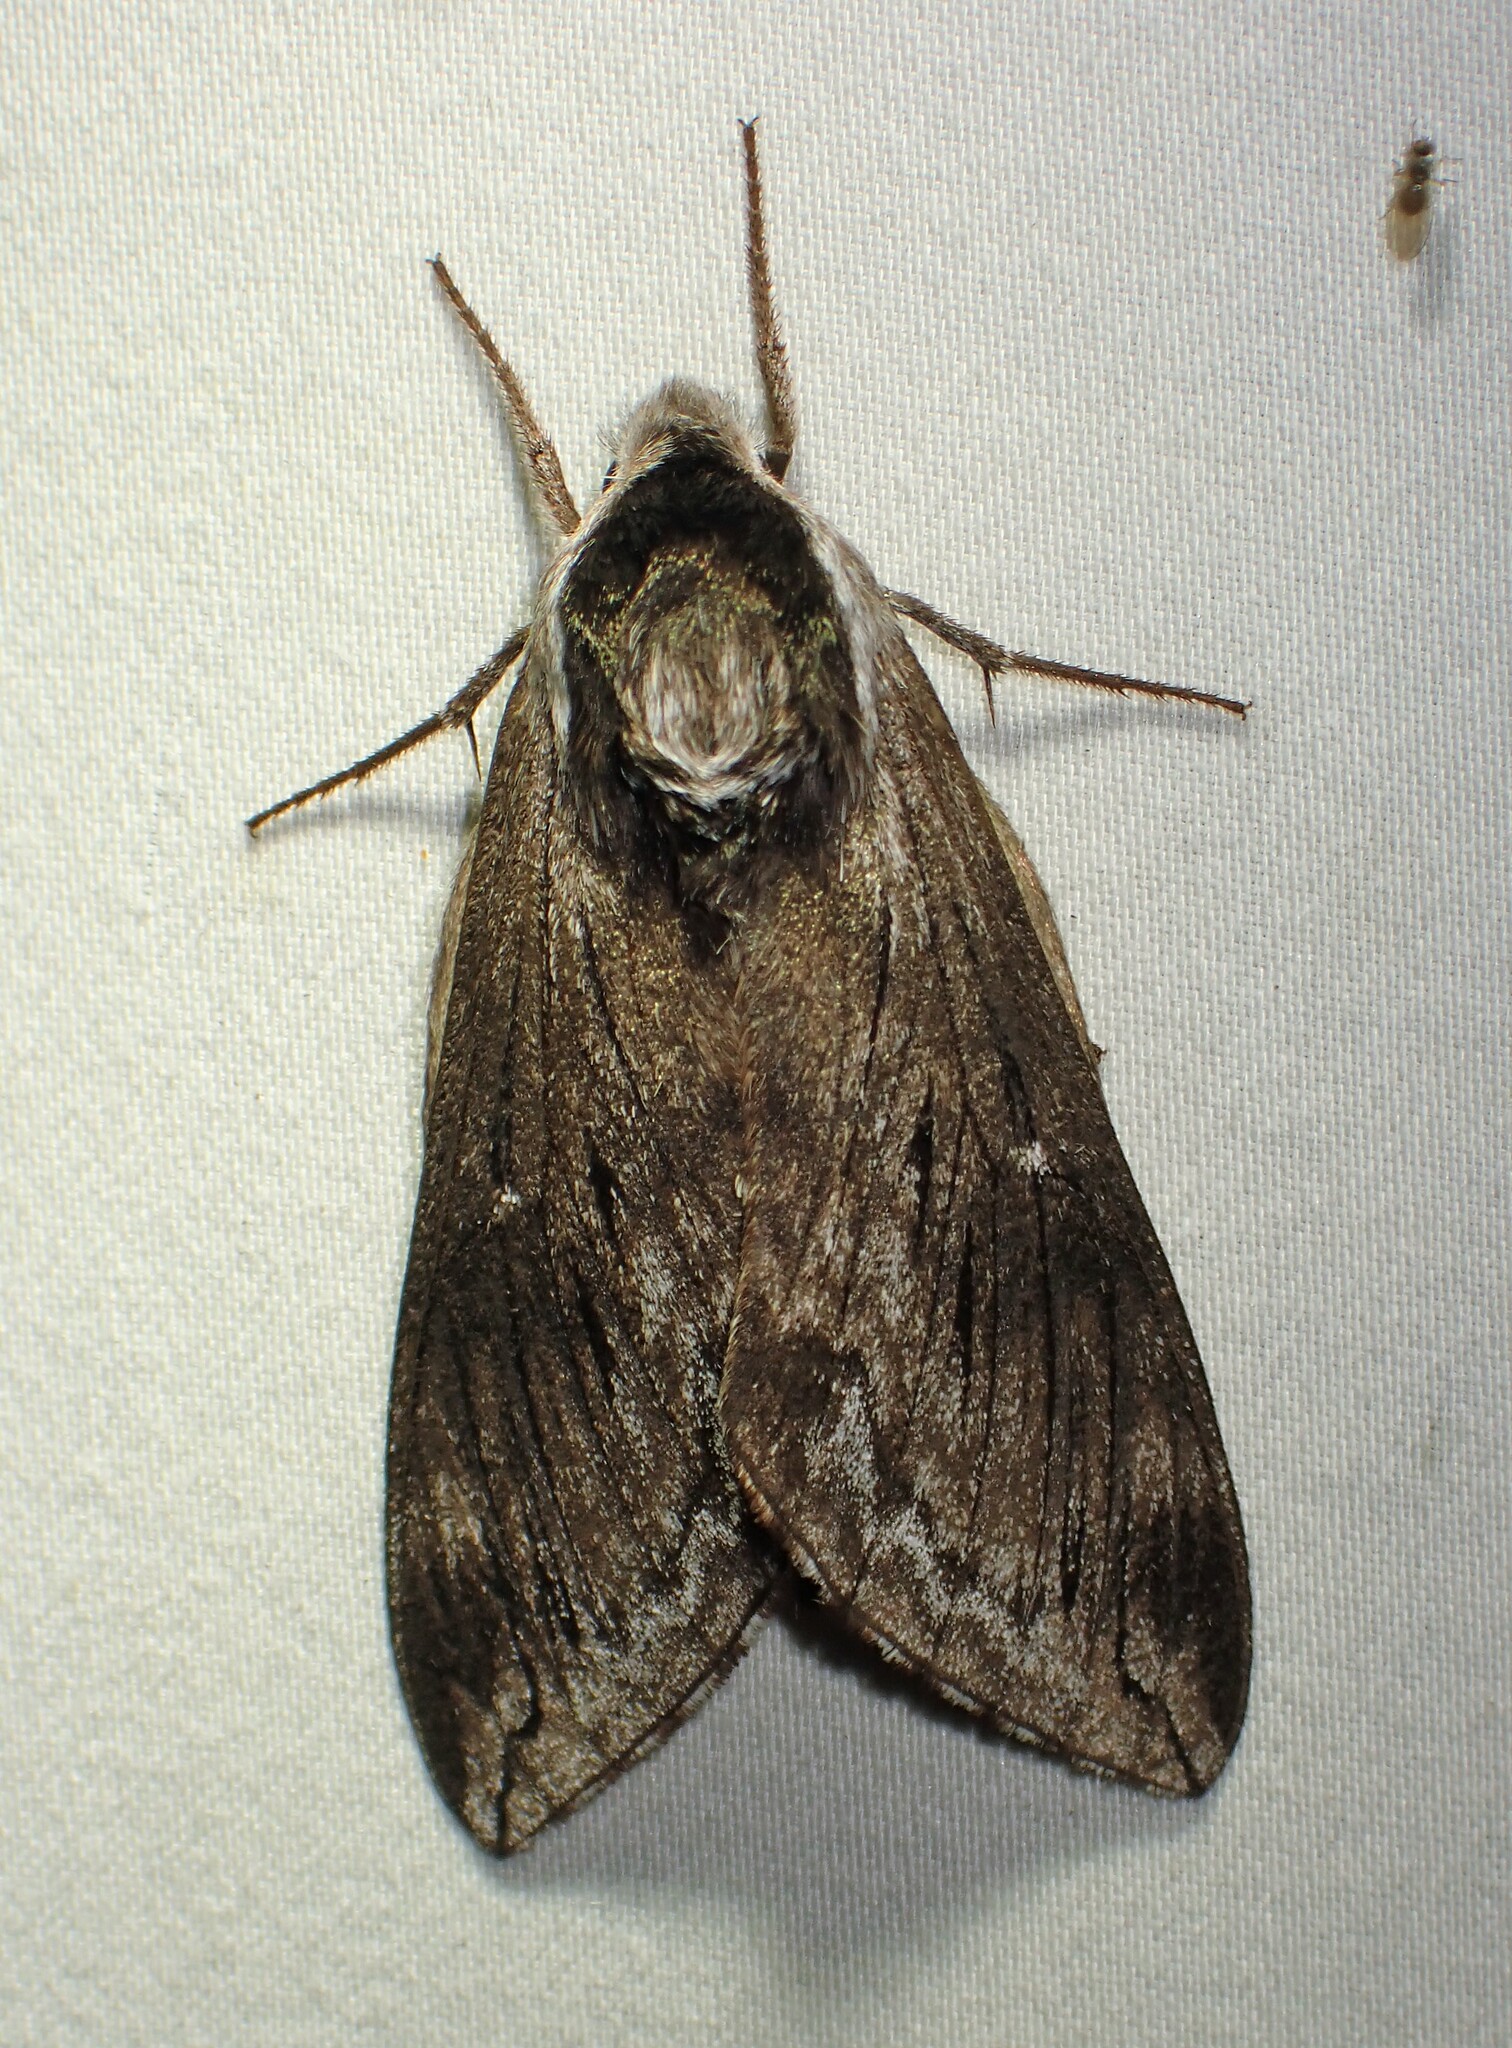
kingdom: Animalia
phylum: Arthropoda
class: Insecta
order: Lepidoptera
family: Sphingidae
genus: Sphinx
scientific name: Sphinx poecila
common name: Northern apple sphinx
